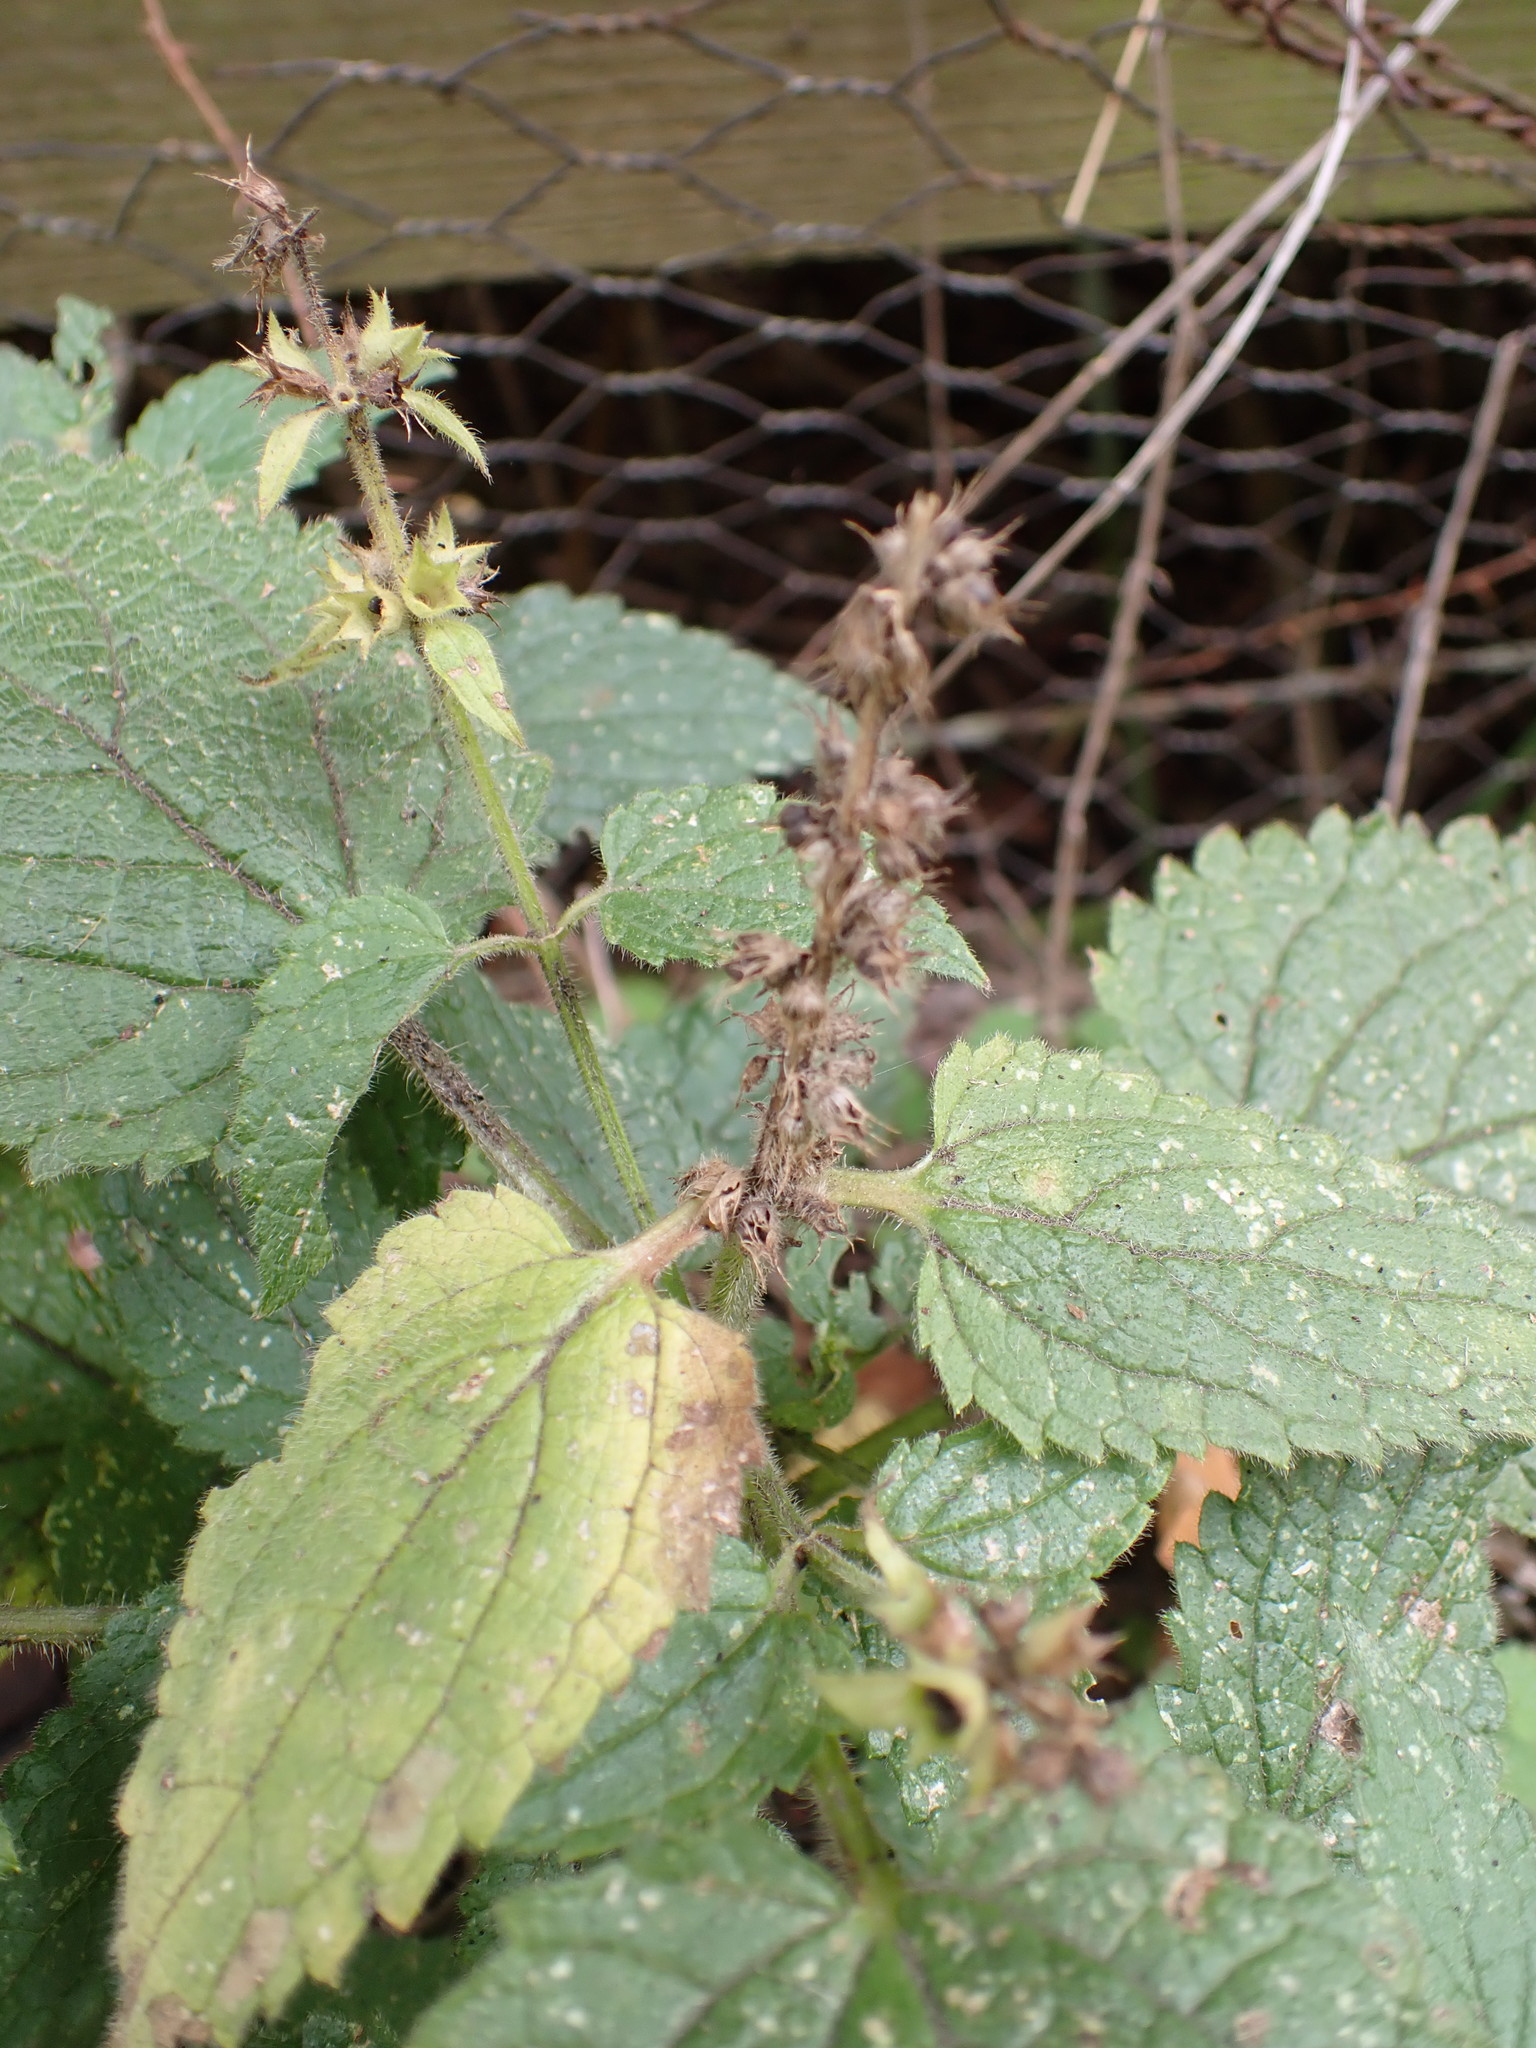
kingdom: Plantae
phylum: Tracheophyta
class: Magnoliopsida
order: Lamiales
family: Lamiaceae
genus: Stachys
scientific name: Stachys sylvatica
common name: Hedge woundwort
